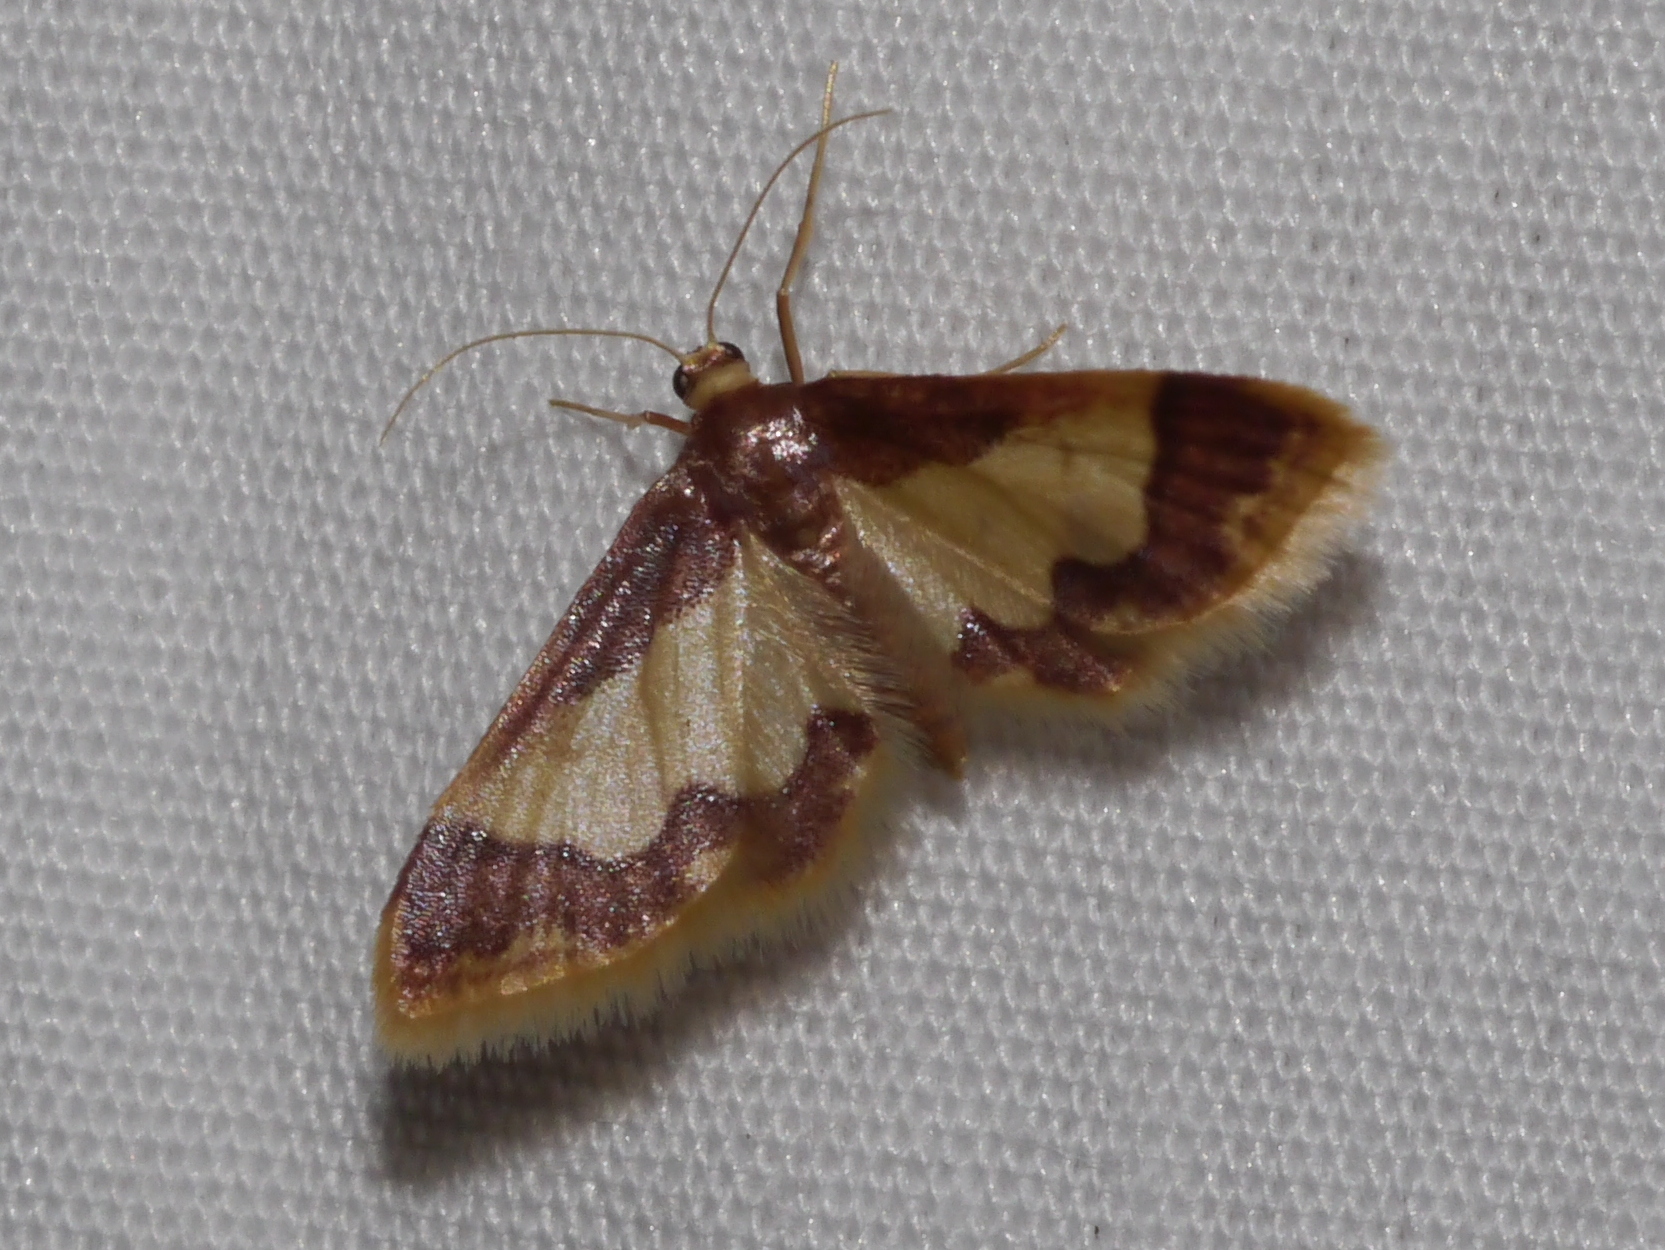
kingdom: Animalia
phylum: Arthropoda
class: Insecta
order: Lepidoptera
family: Geometridae
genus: Idaea
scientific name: Idaea basinta
